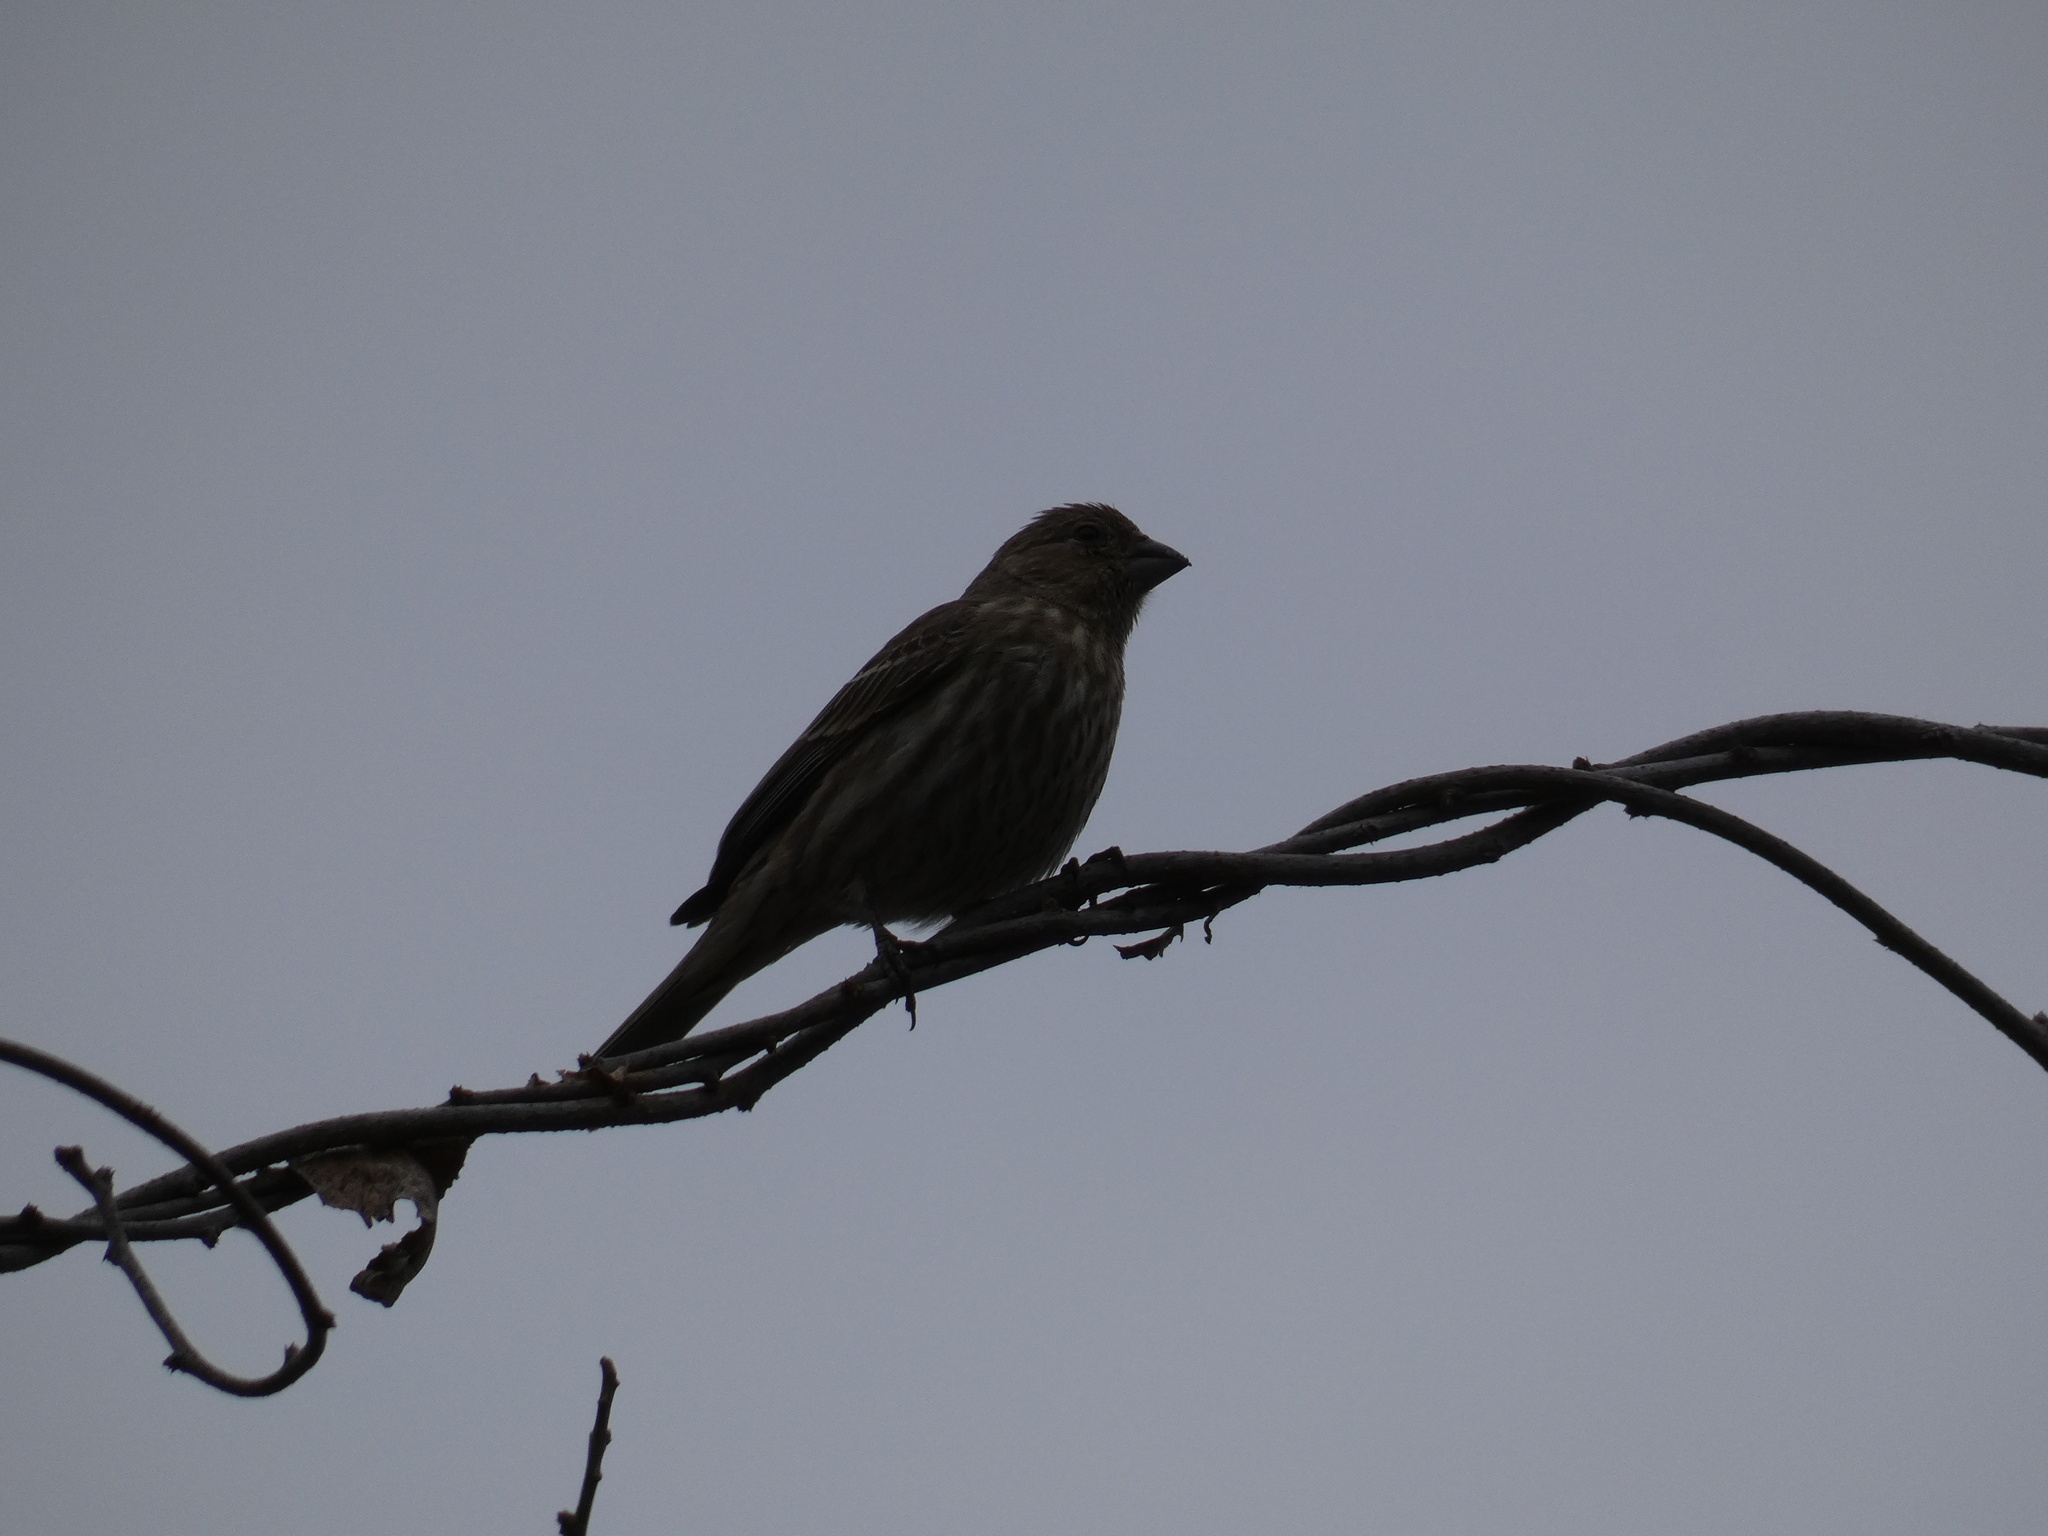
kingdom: Animalia
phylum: Chordata
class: Aves
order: Passeriformes
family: Fringillidae
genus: Haemorhous
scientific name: Haemorhous mexicanus
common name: House finch
